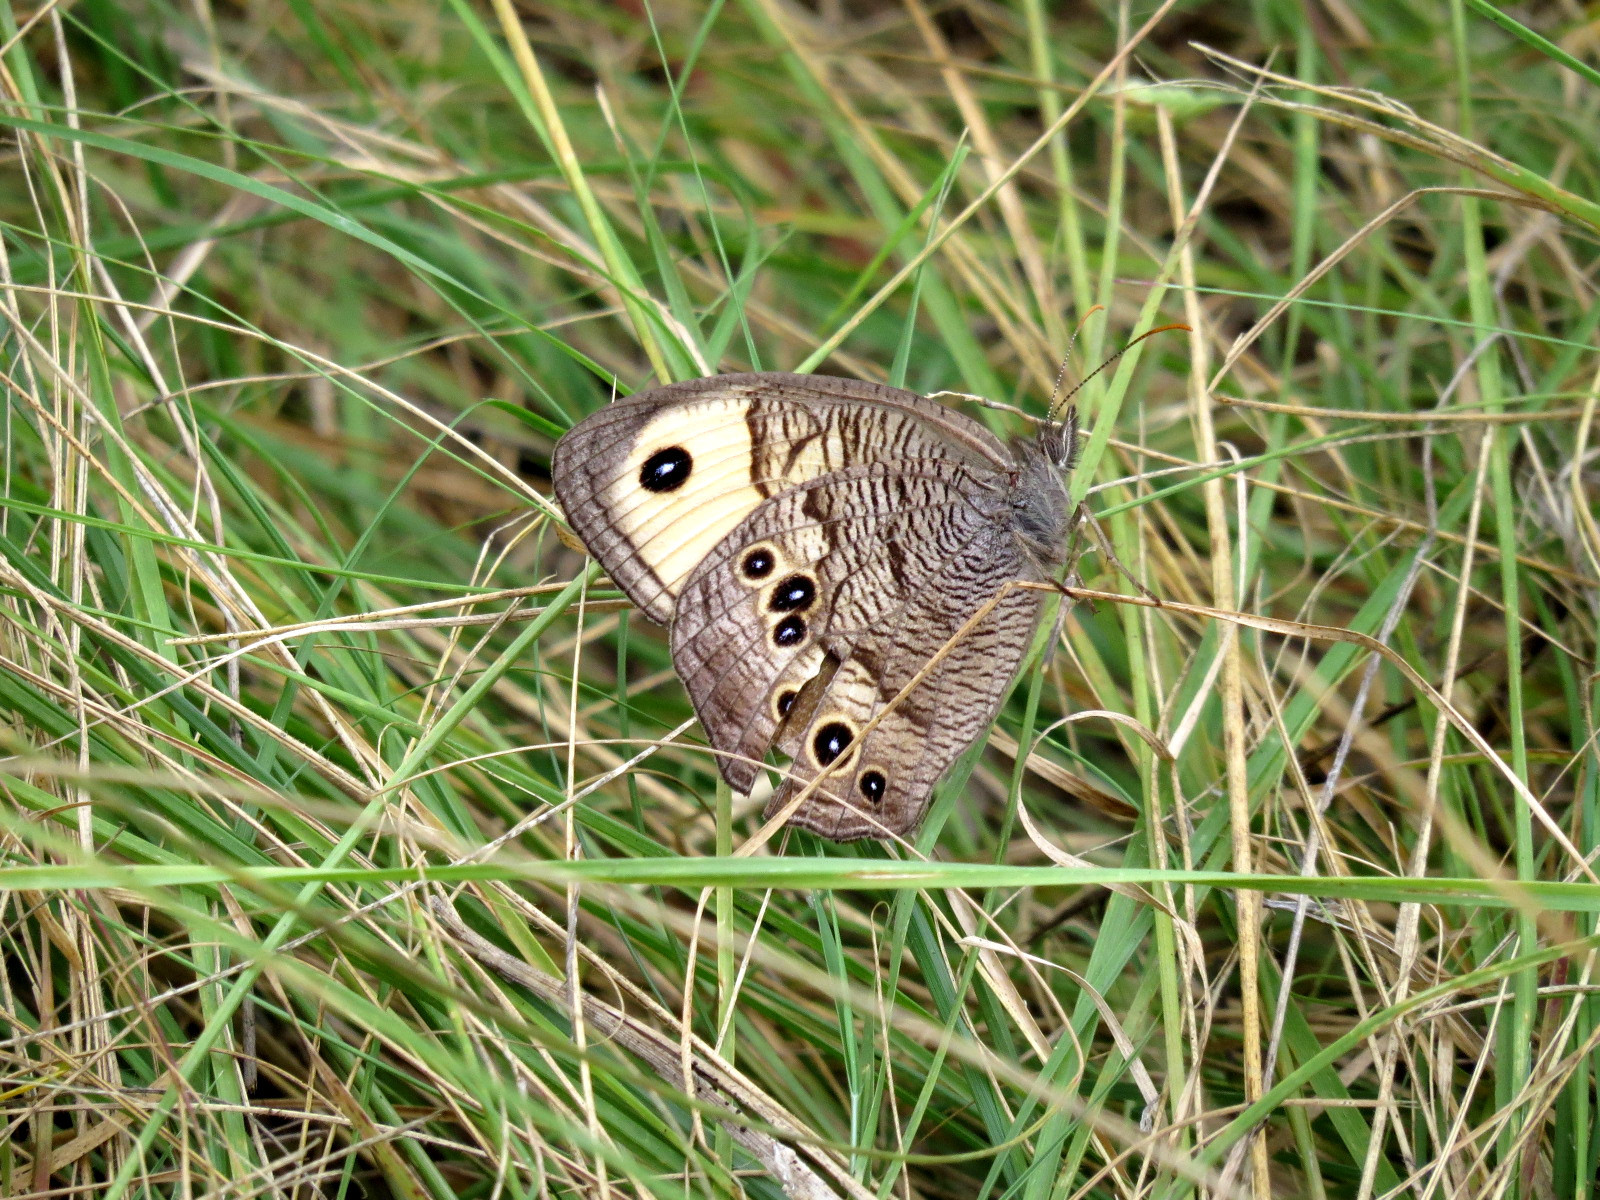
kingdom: Animalia
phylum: Arthropoda
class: Insecta
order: Lepidoptera
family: Nymphalidae
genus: Cercyonis
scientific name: Cercyonis pegala
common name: Common wood-nymph
